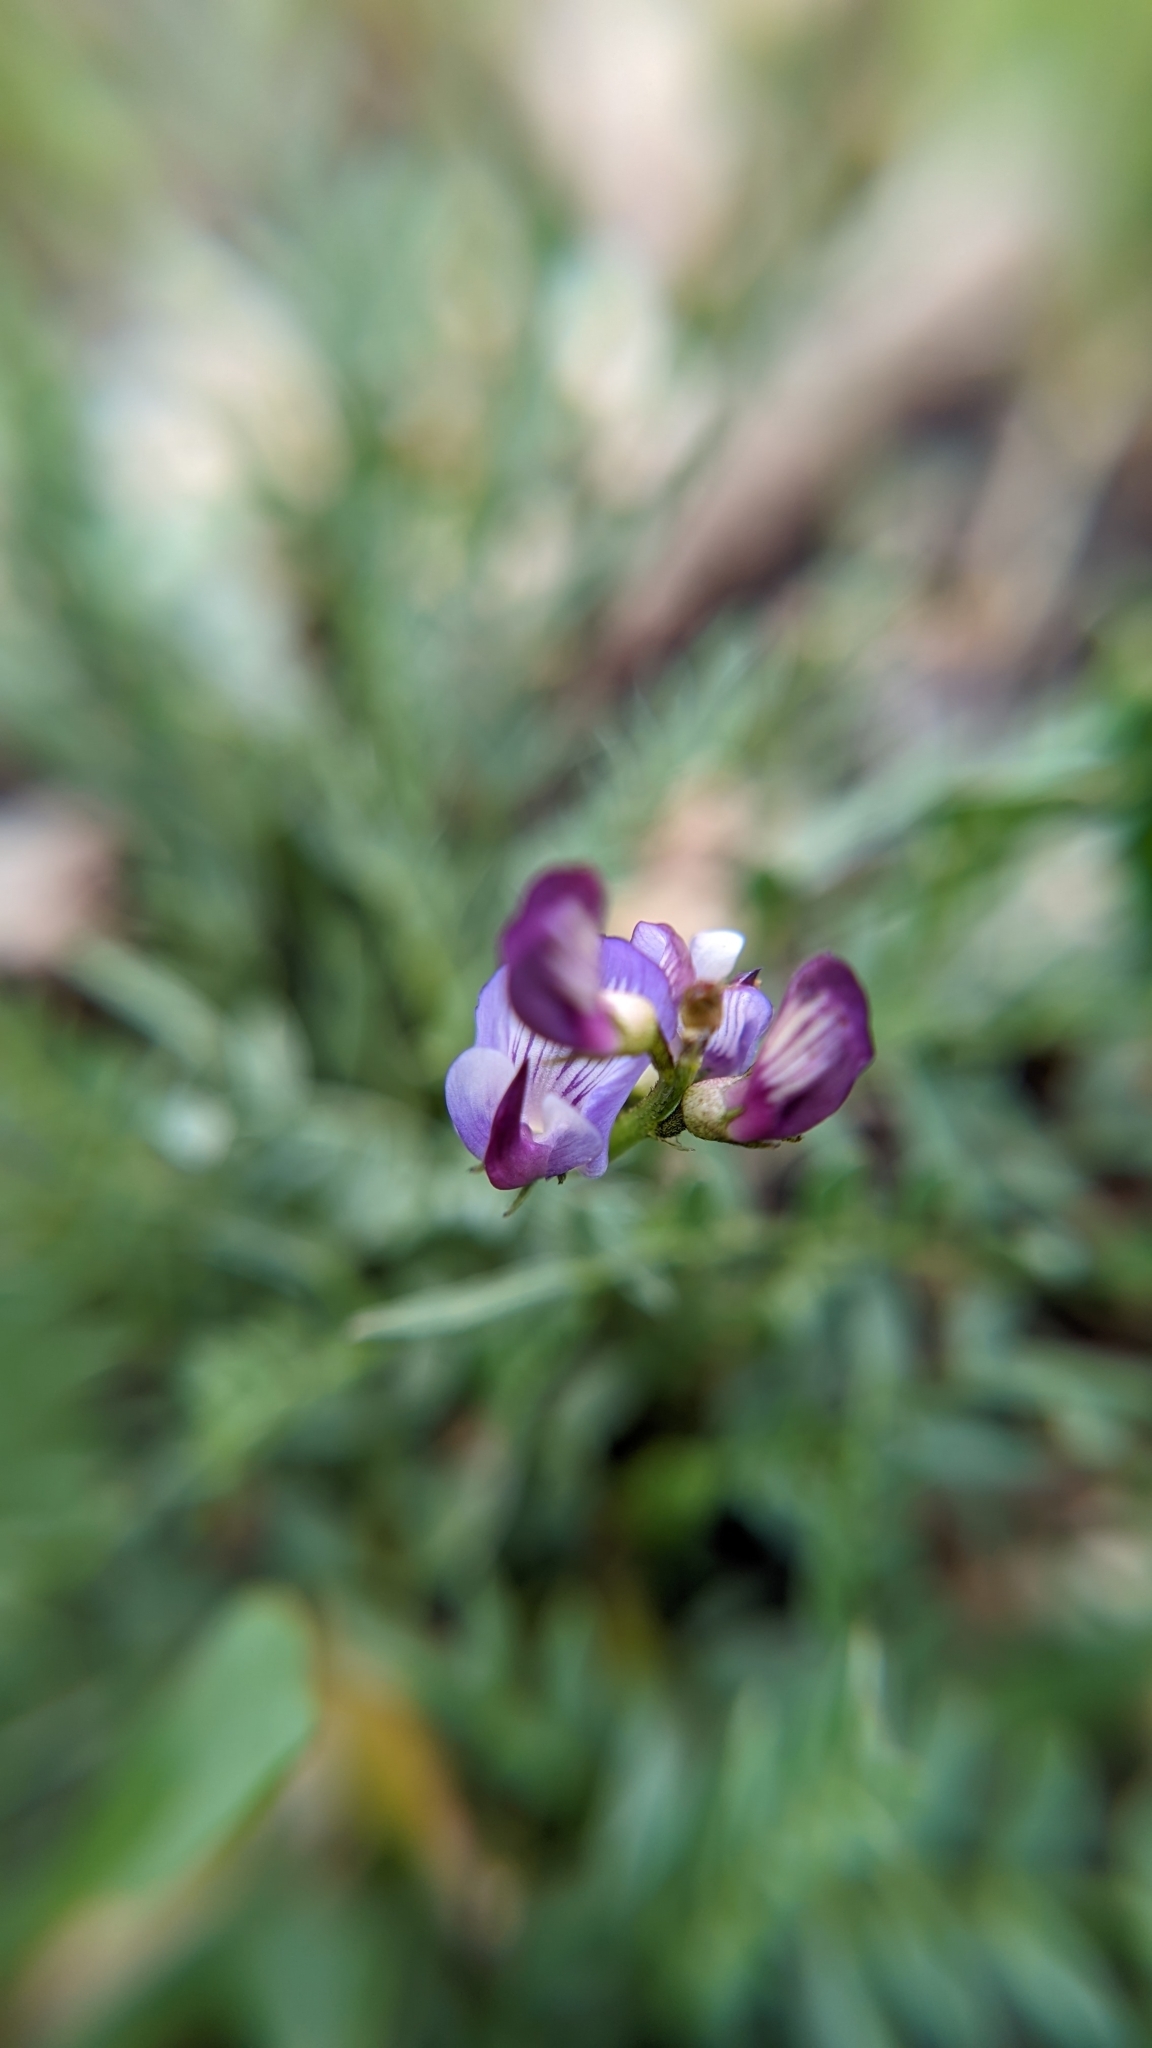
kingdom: Plantae
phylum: Tracheophyta
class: Magnoliopsida
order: Fabales
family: Fabaceae
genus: Astragalus
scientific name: Astragalus miser
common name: Timber milkvetch
